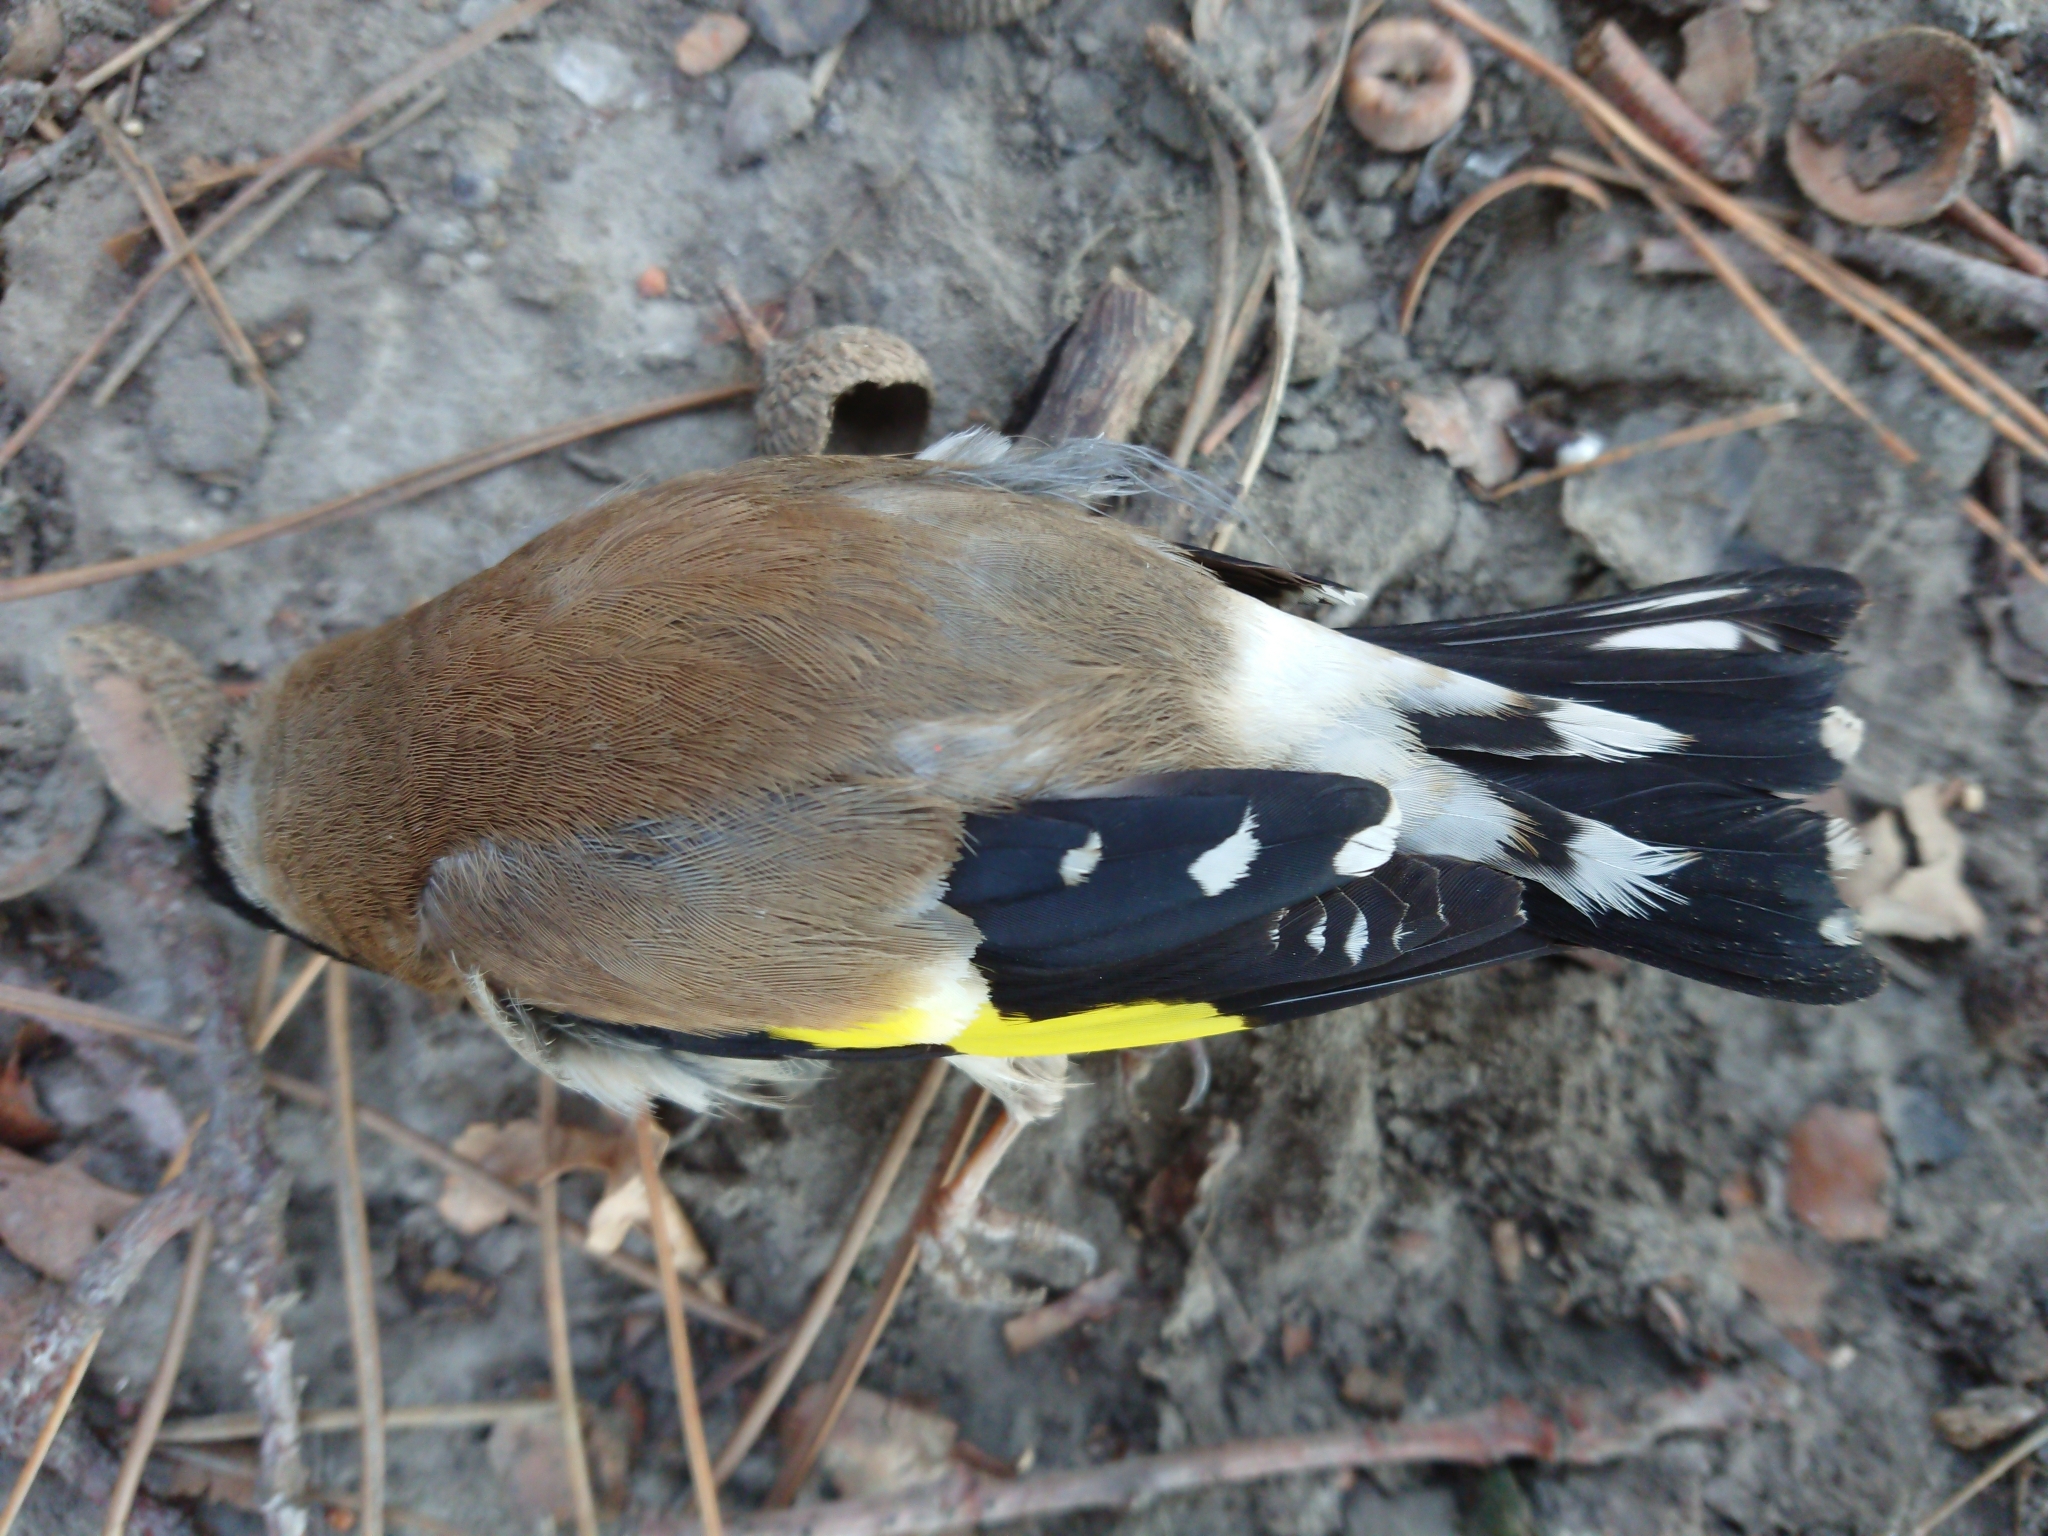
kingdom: Animalia
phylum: Chordata
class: Aves
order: Passeriformes
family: Fringillidae
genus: Carduelis
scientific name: Carduelis carduelis
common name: European goldfinch
